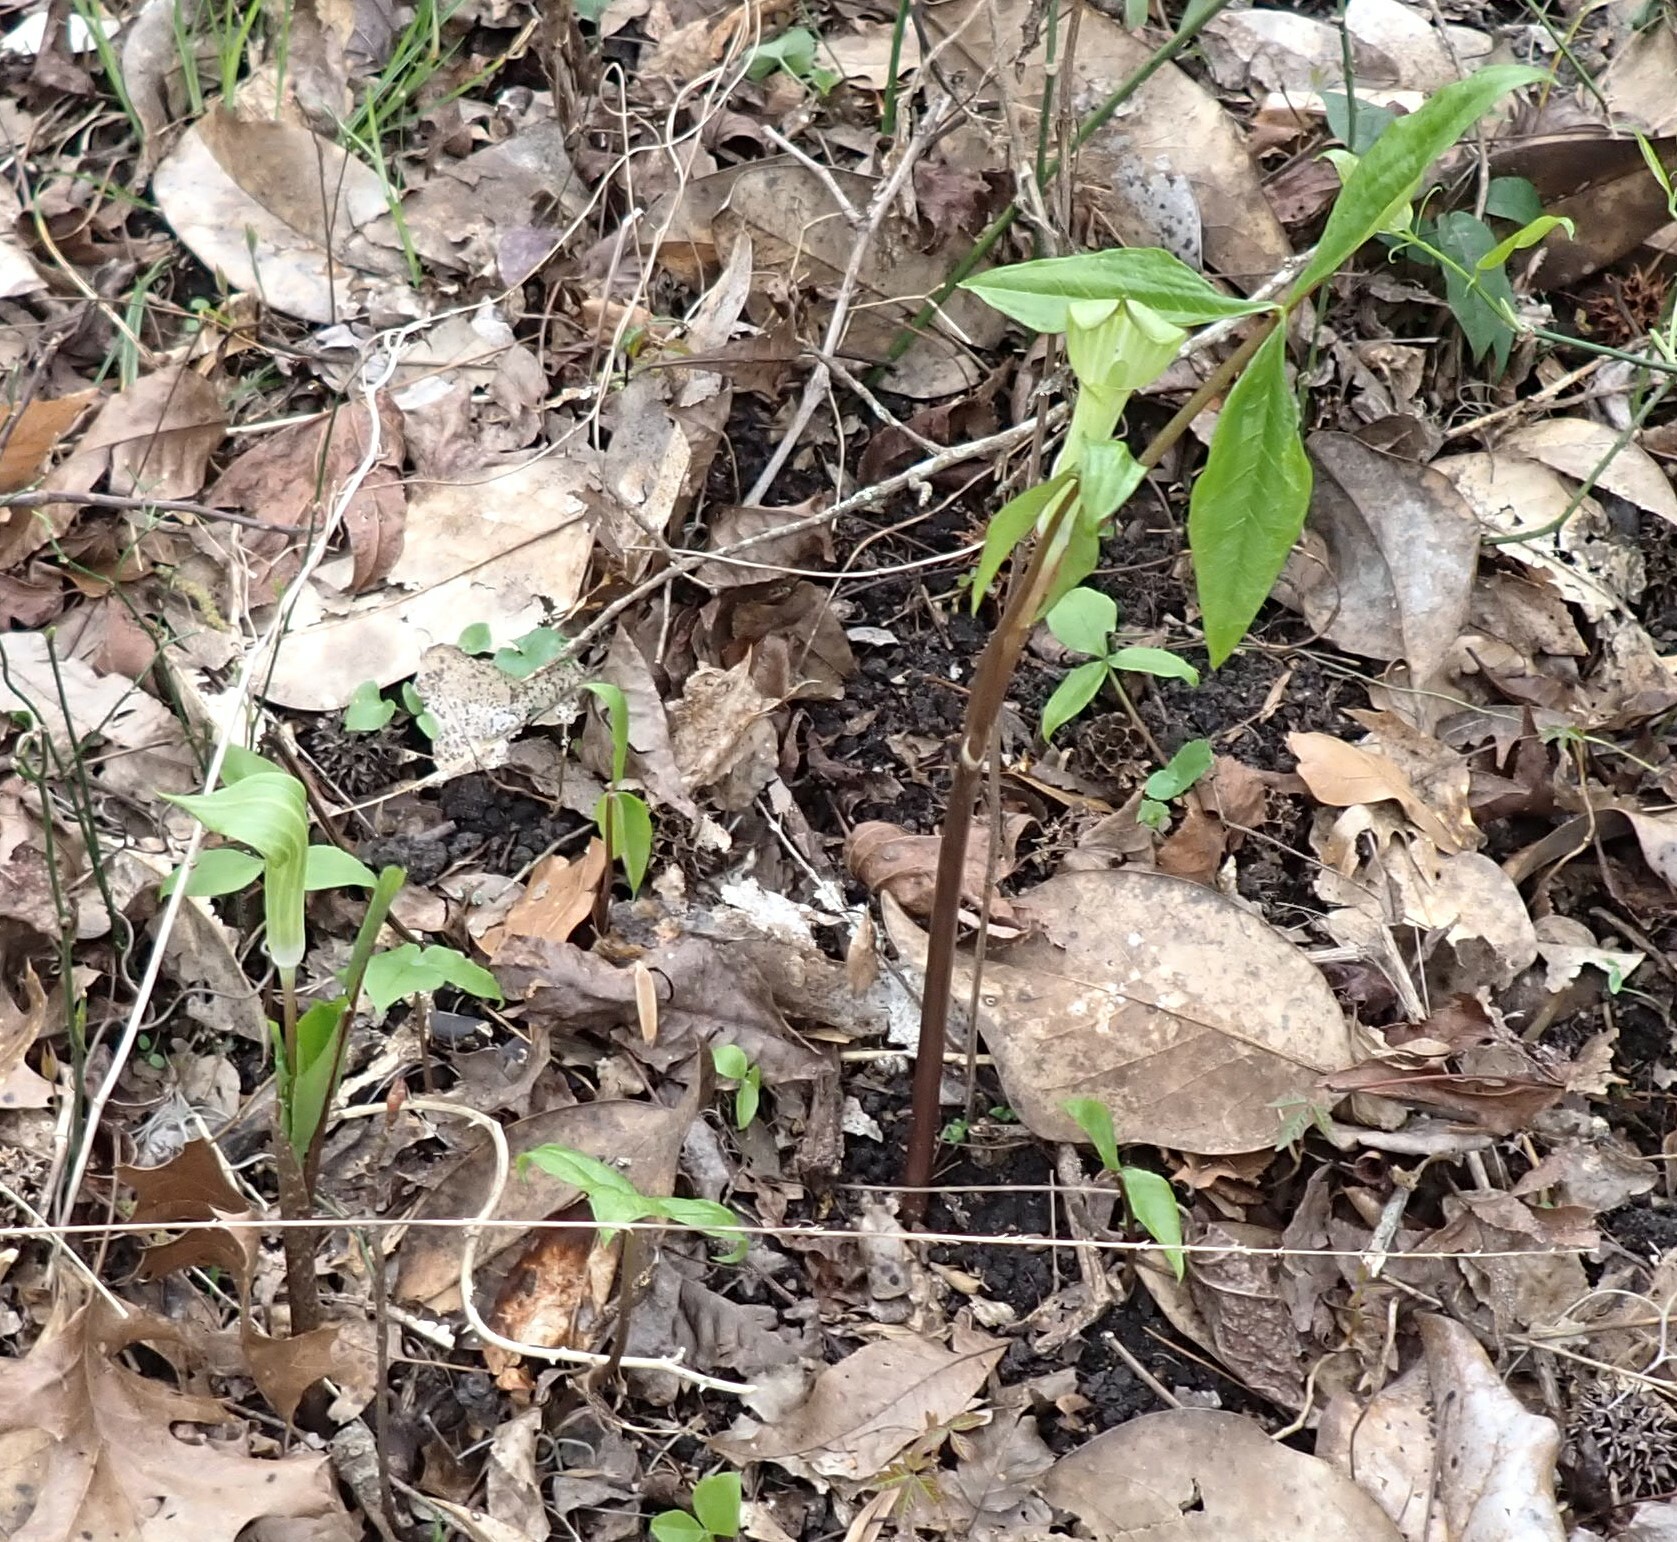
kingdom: Plantae
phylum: Tracheophyta
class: Liliopsida
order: Alismatales
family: Araceae
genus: Arisaema
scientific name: Arisaema acuminatum
